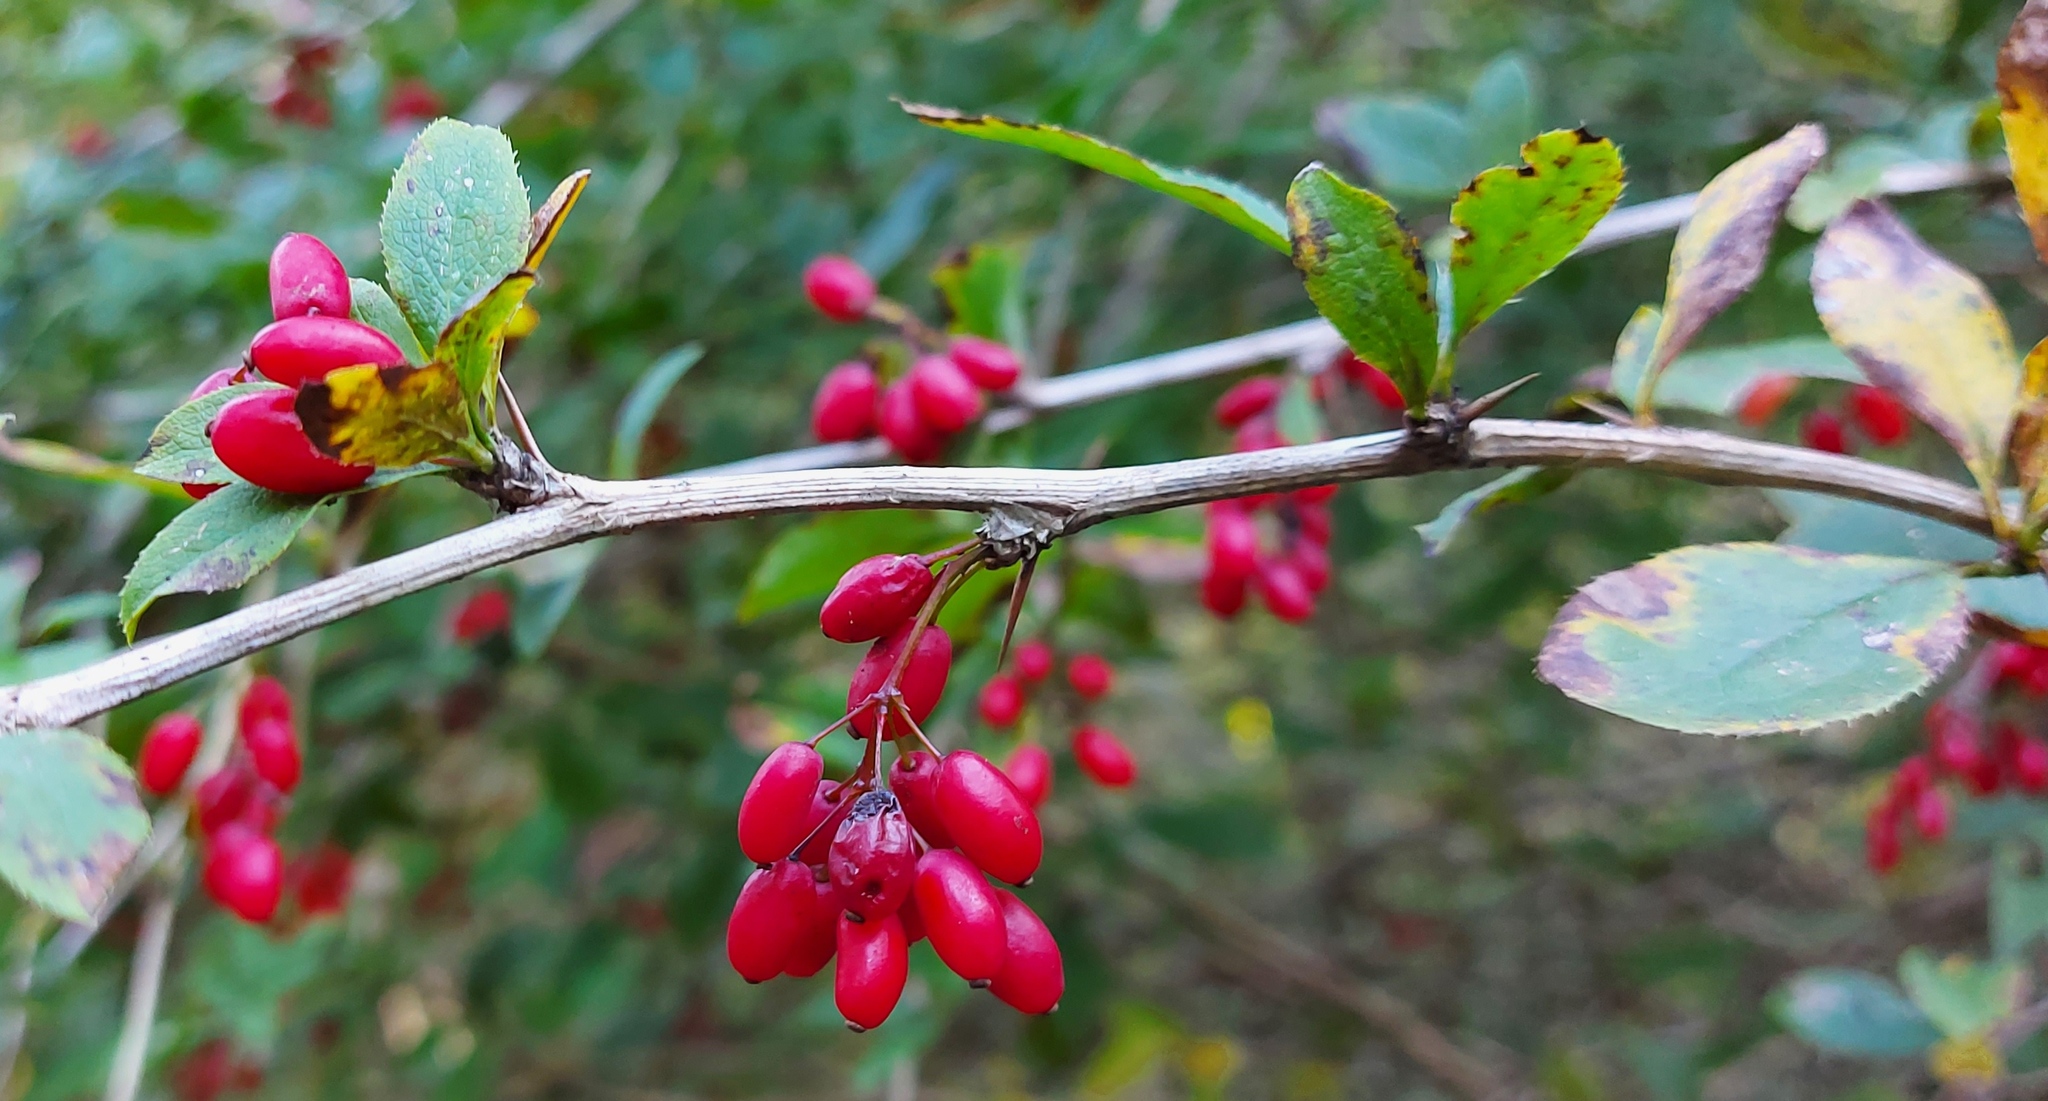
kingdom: Plantae
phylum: Tracheophyta
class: Magnoliopsida
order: Ranunculales
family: Berberidaceae
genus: Berberis
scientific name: Berberis vulgaris
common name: Barberry
